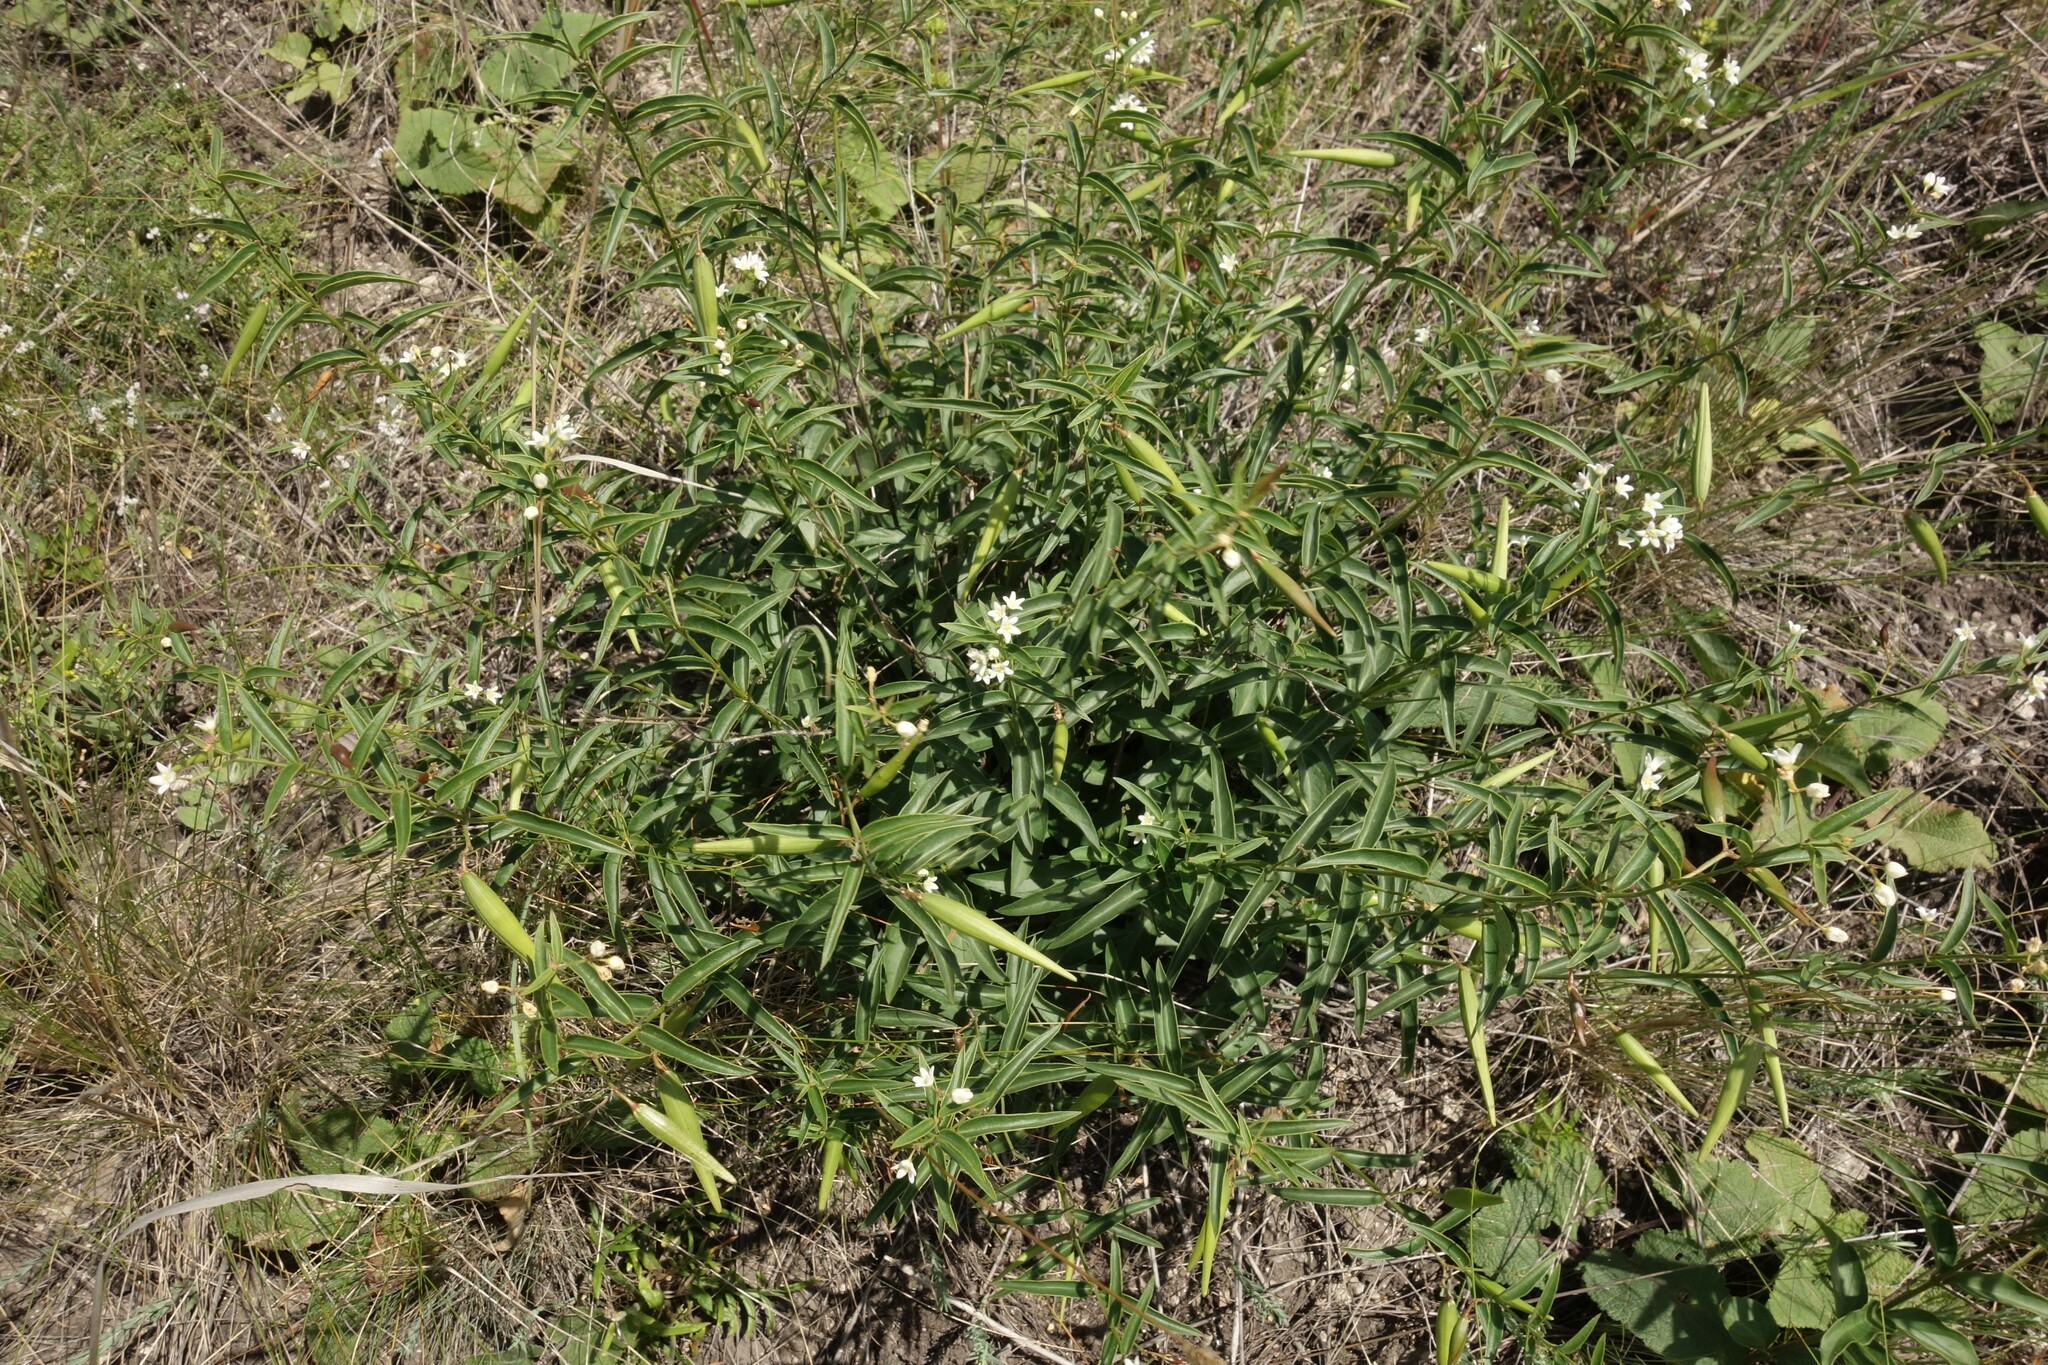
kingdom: Plantae
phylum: Tracheophyta
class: Magnoliopsida
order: Gentianales
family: Apocynaceae
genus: Vincetoxicum
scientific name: Vincetoxicum hirundinaria
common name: White swallowwort
